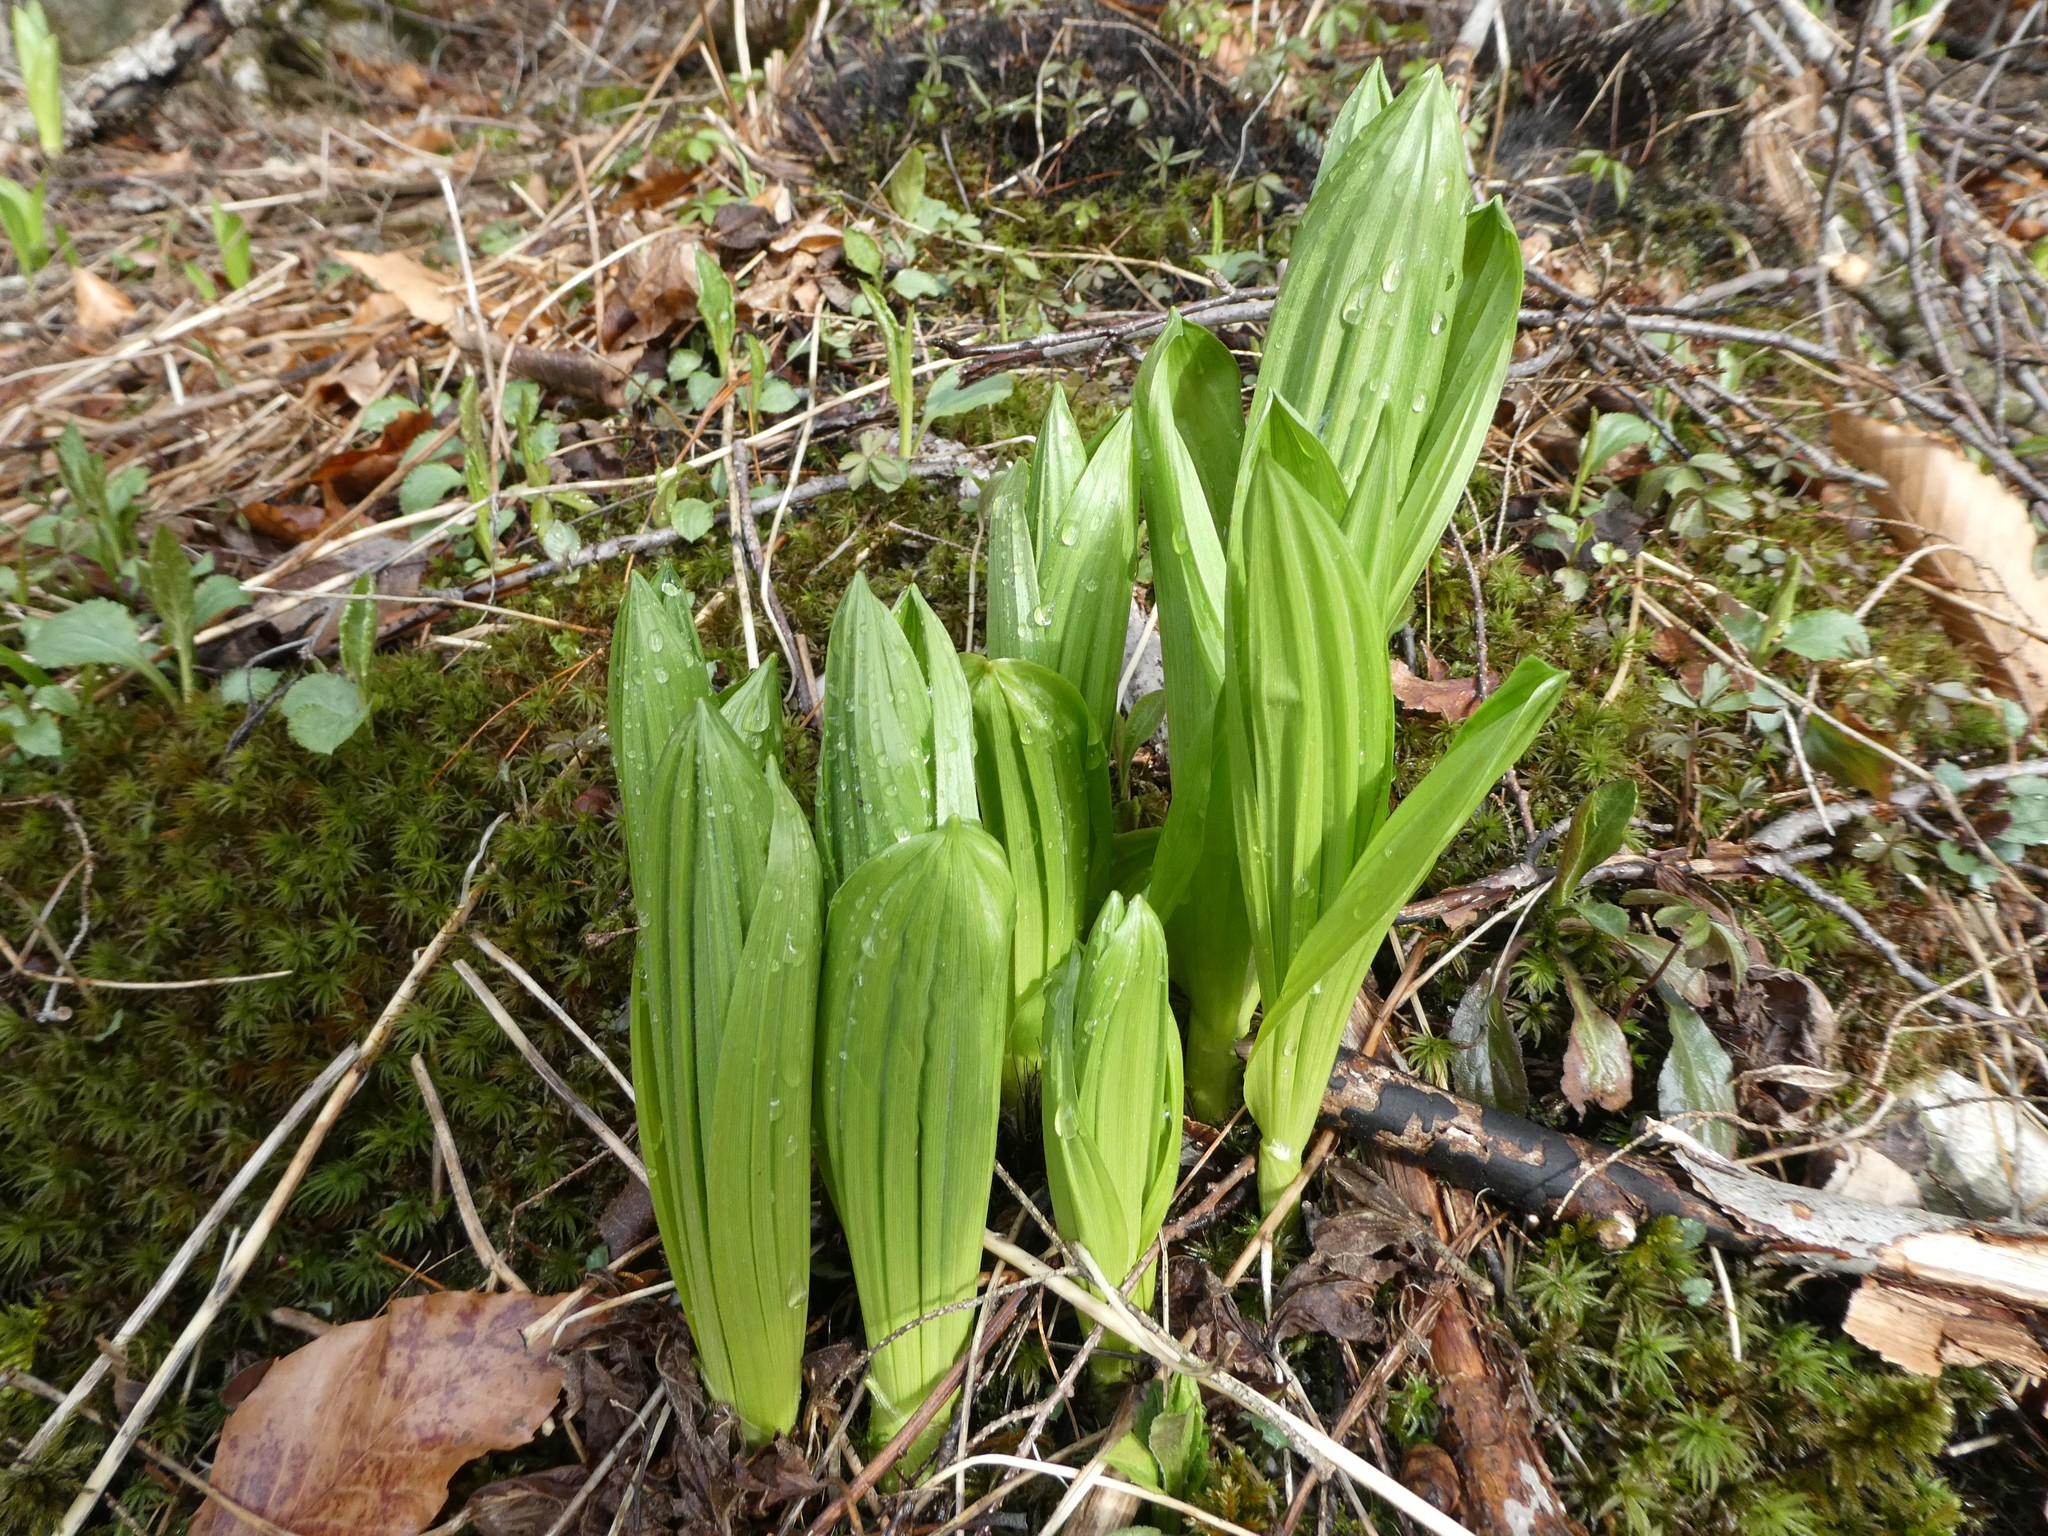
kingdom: Plantae
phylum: Tracheophyta
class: Liliopsida
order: Liliales
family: Melanthiaceae
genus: Veratrum
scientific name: Veratrum viride
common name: American false hellebore
